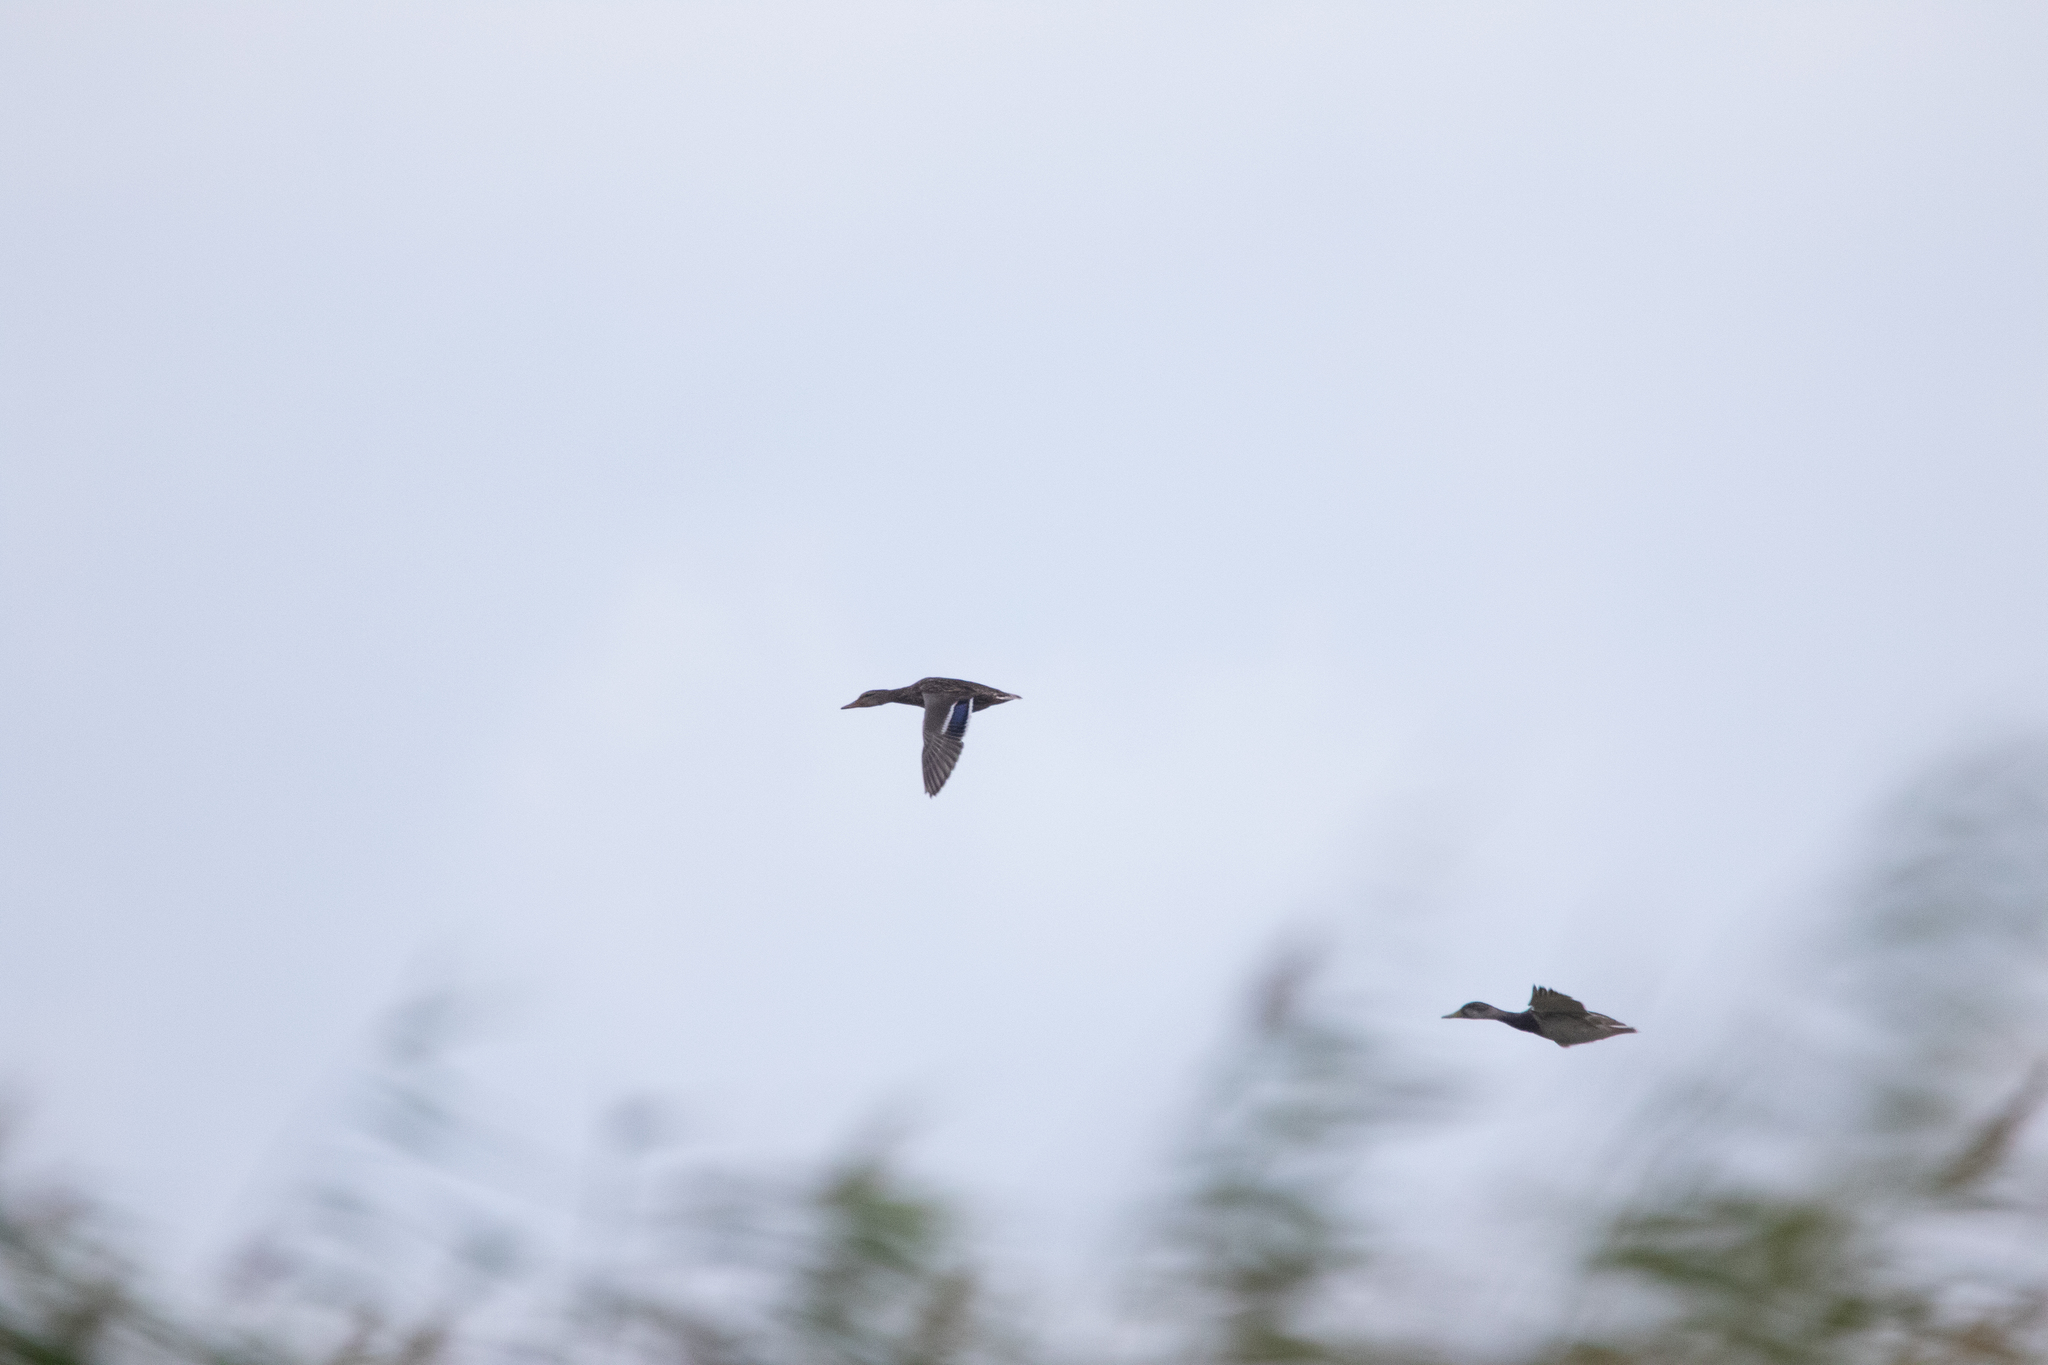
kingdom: Animalia
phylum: Chordata
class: Aves
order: Anseriformes
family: Anatidae
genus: Anas
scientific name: Anas platyrhynchos
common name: Mallard
